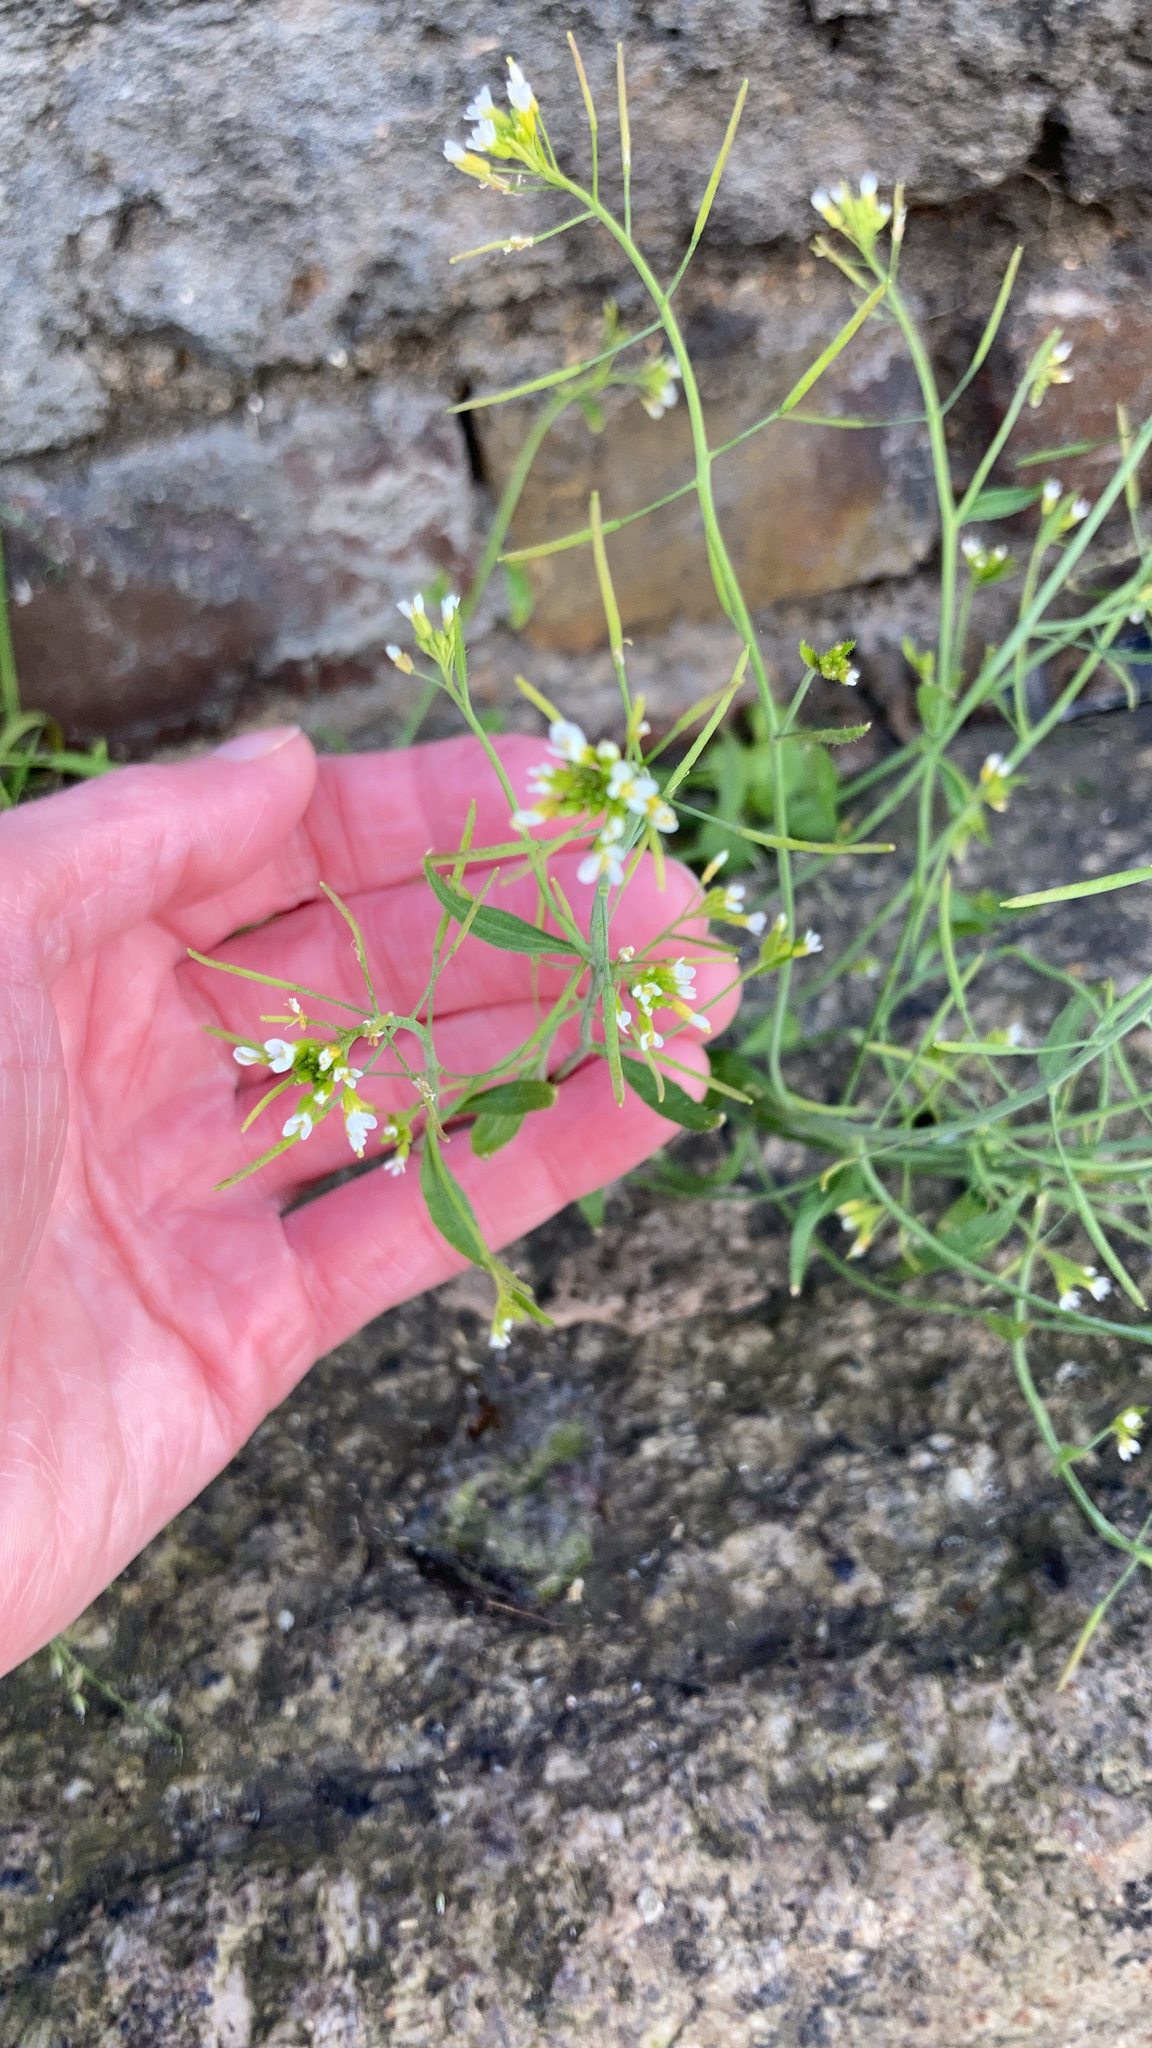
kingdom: Plantae
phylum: Tracheophyta
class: Magnoliopsida
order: Brassicales
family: Brassicaceae
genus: Arabidopsis
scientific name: Arabidopsis thaliana
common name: Thale cress
